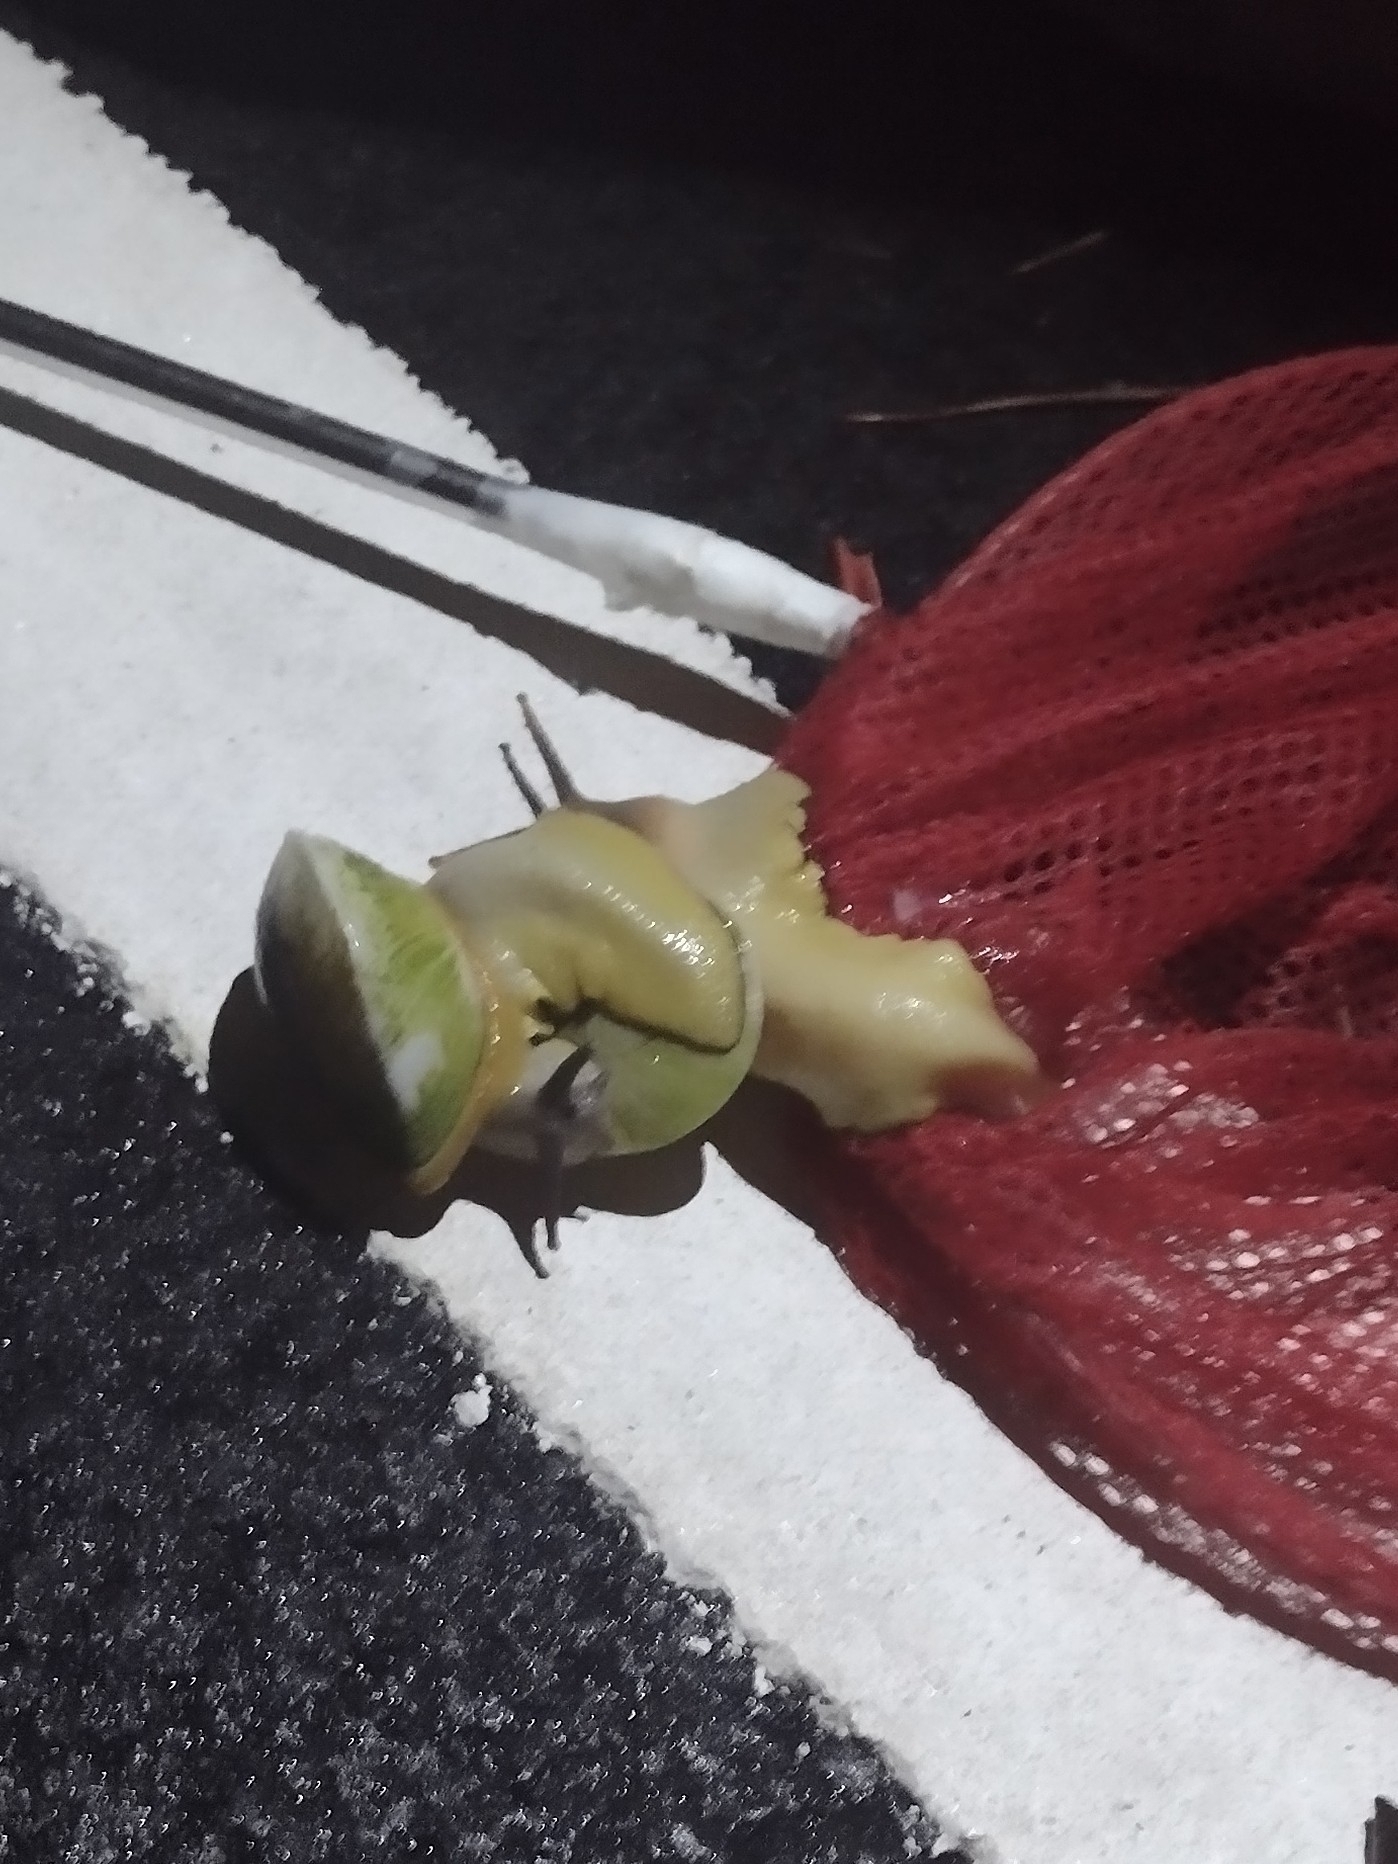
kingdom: Animalia
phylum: Mollusca
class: Gastropoda
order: Stylommatophora
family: Sagdidae
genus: Parthena
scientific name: Parthena acutangula
